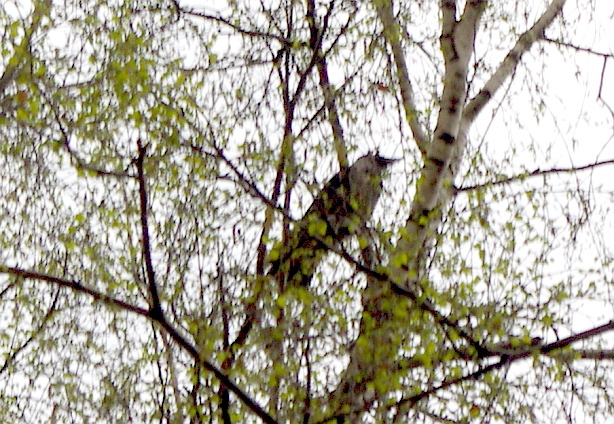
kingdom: Animalia
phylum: Chordata
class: Aves
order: Passeriformes
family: Corvidae
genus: Corvus
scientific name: Corvus cornix
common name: Hooded crow
